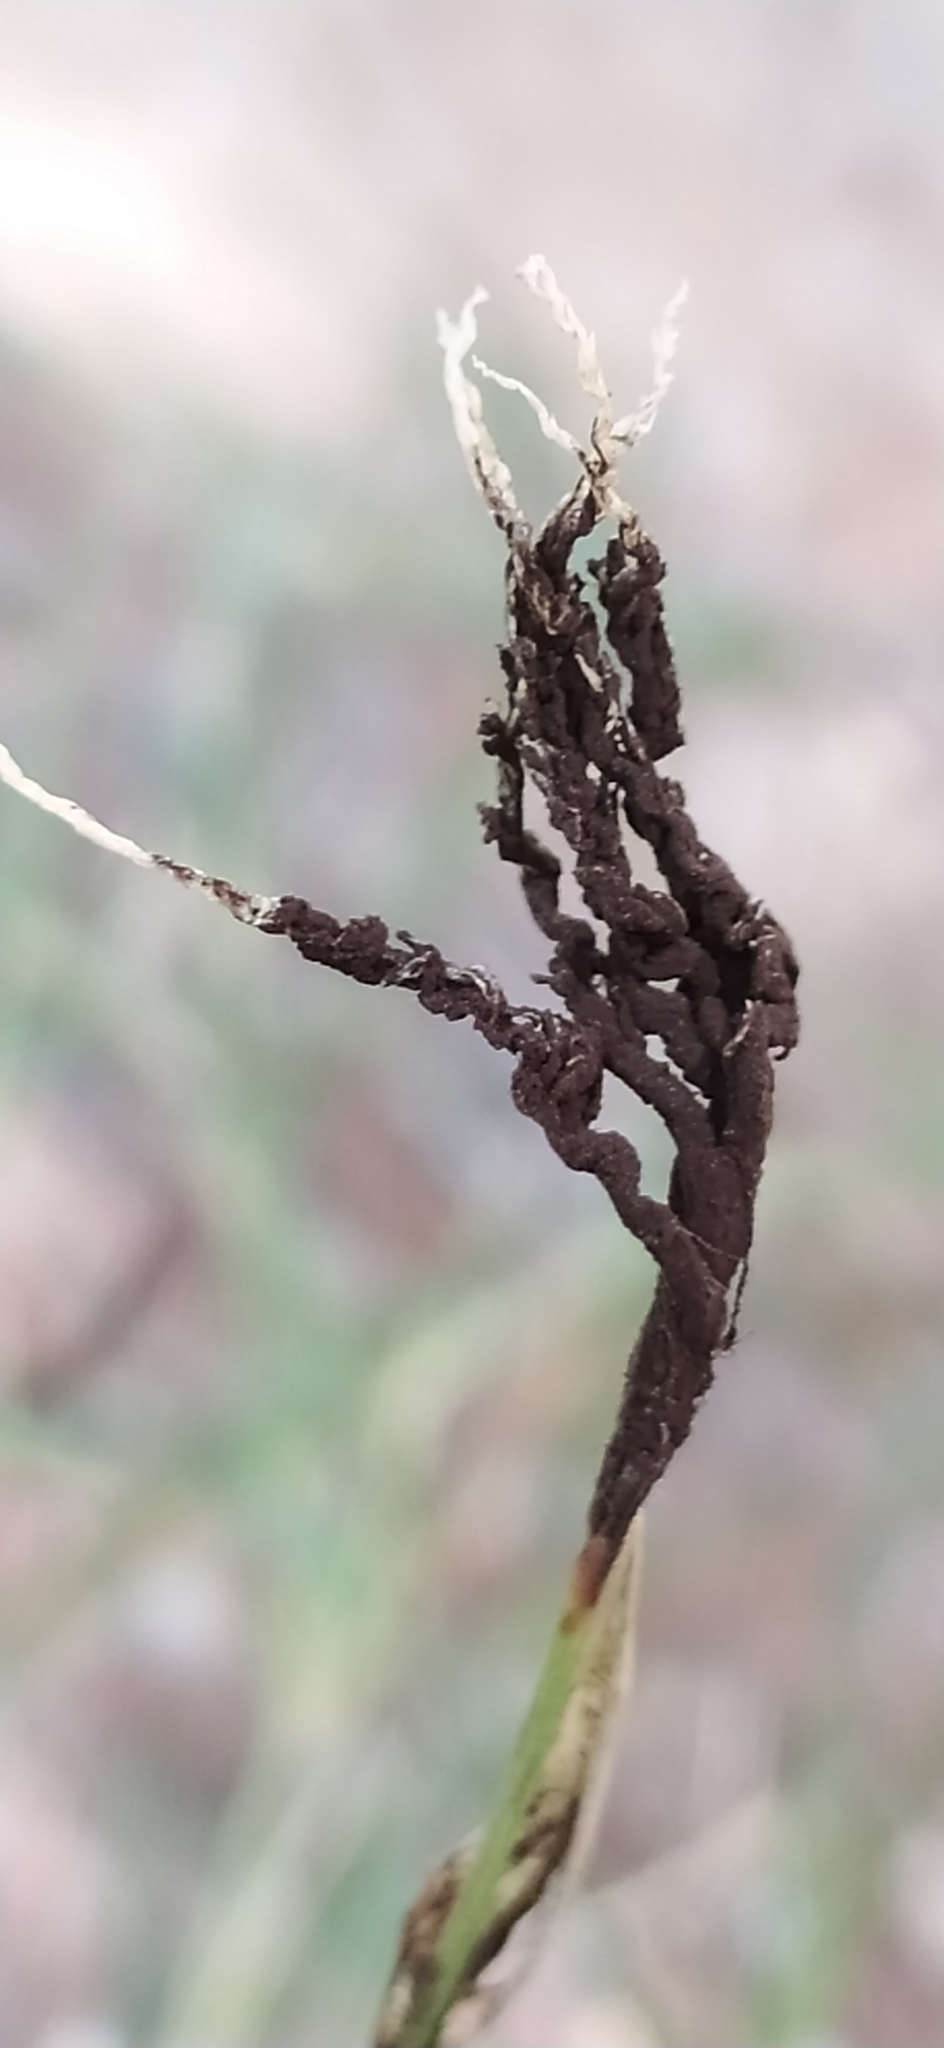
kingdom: Fungi
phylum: Basidiomycota
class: Ustilaginomycetes
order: Ustilaginales
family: Ustilaginaceae
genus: Ustilago
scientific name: Ustilago cynodontis
